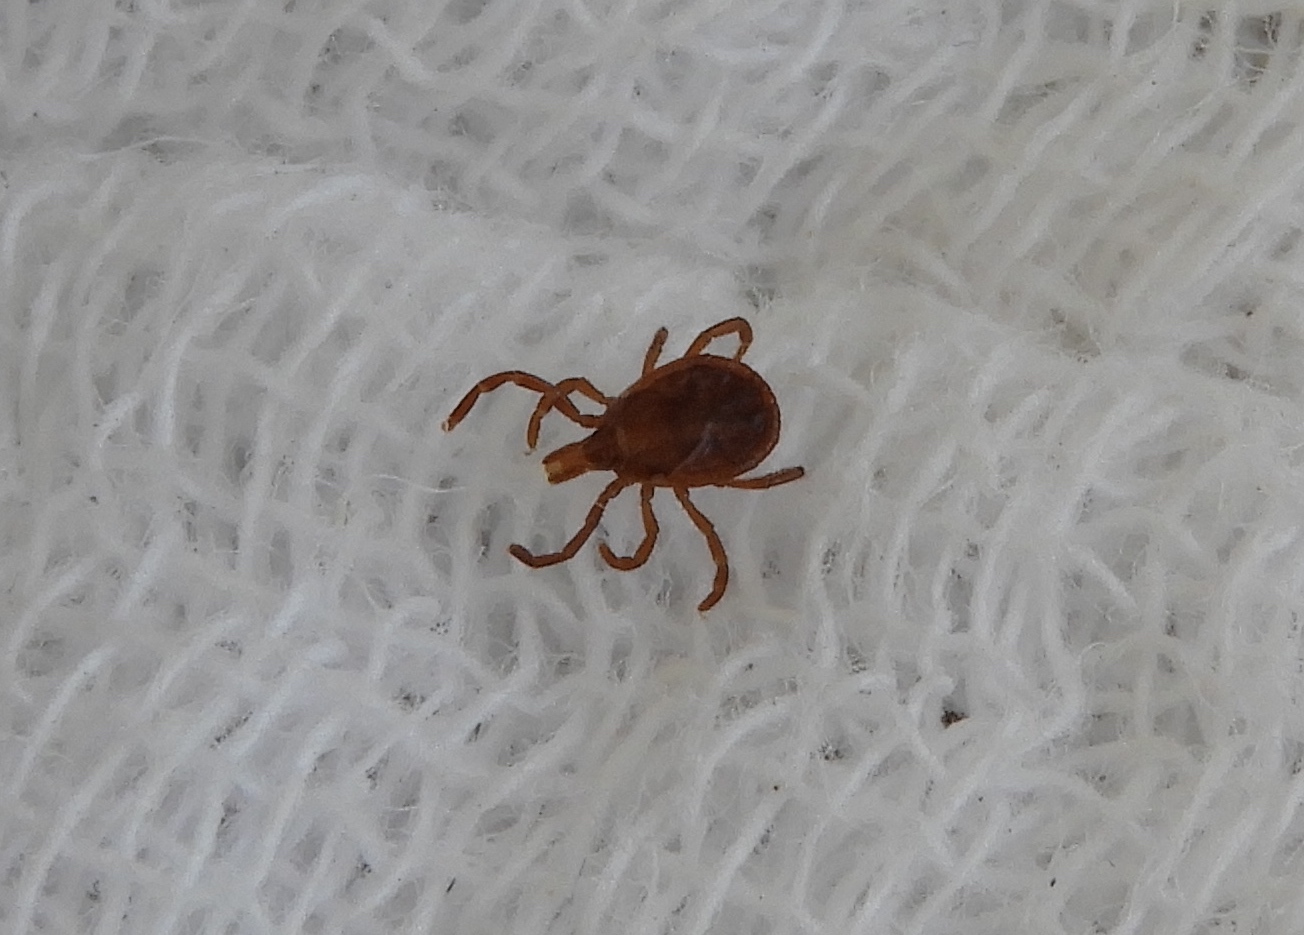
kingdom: Animalia
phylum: Arthropoda
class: Arachnida
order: Ixodida
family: Ixodidae
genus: Amblyomma
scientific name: Amblyomma
